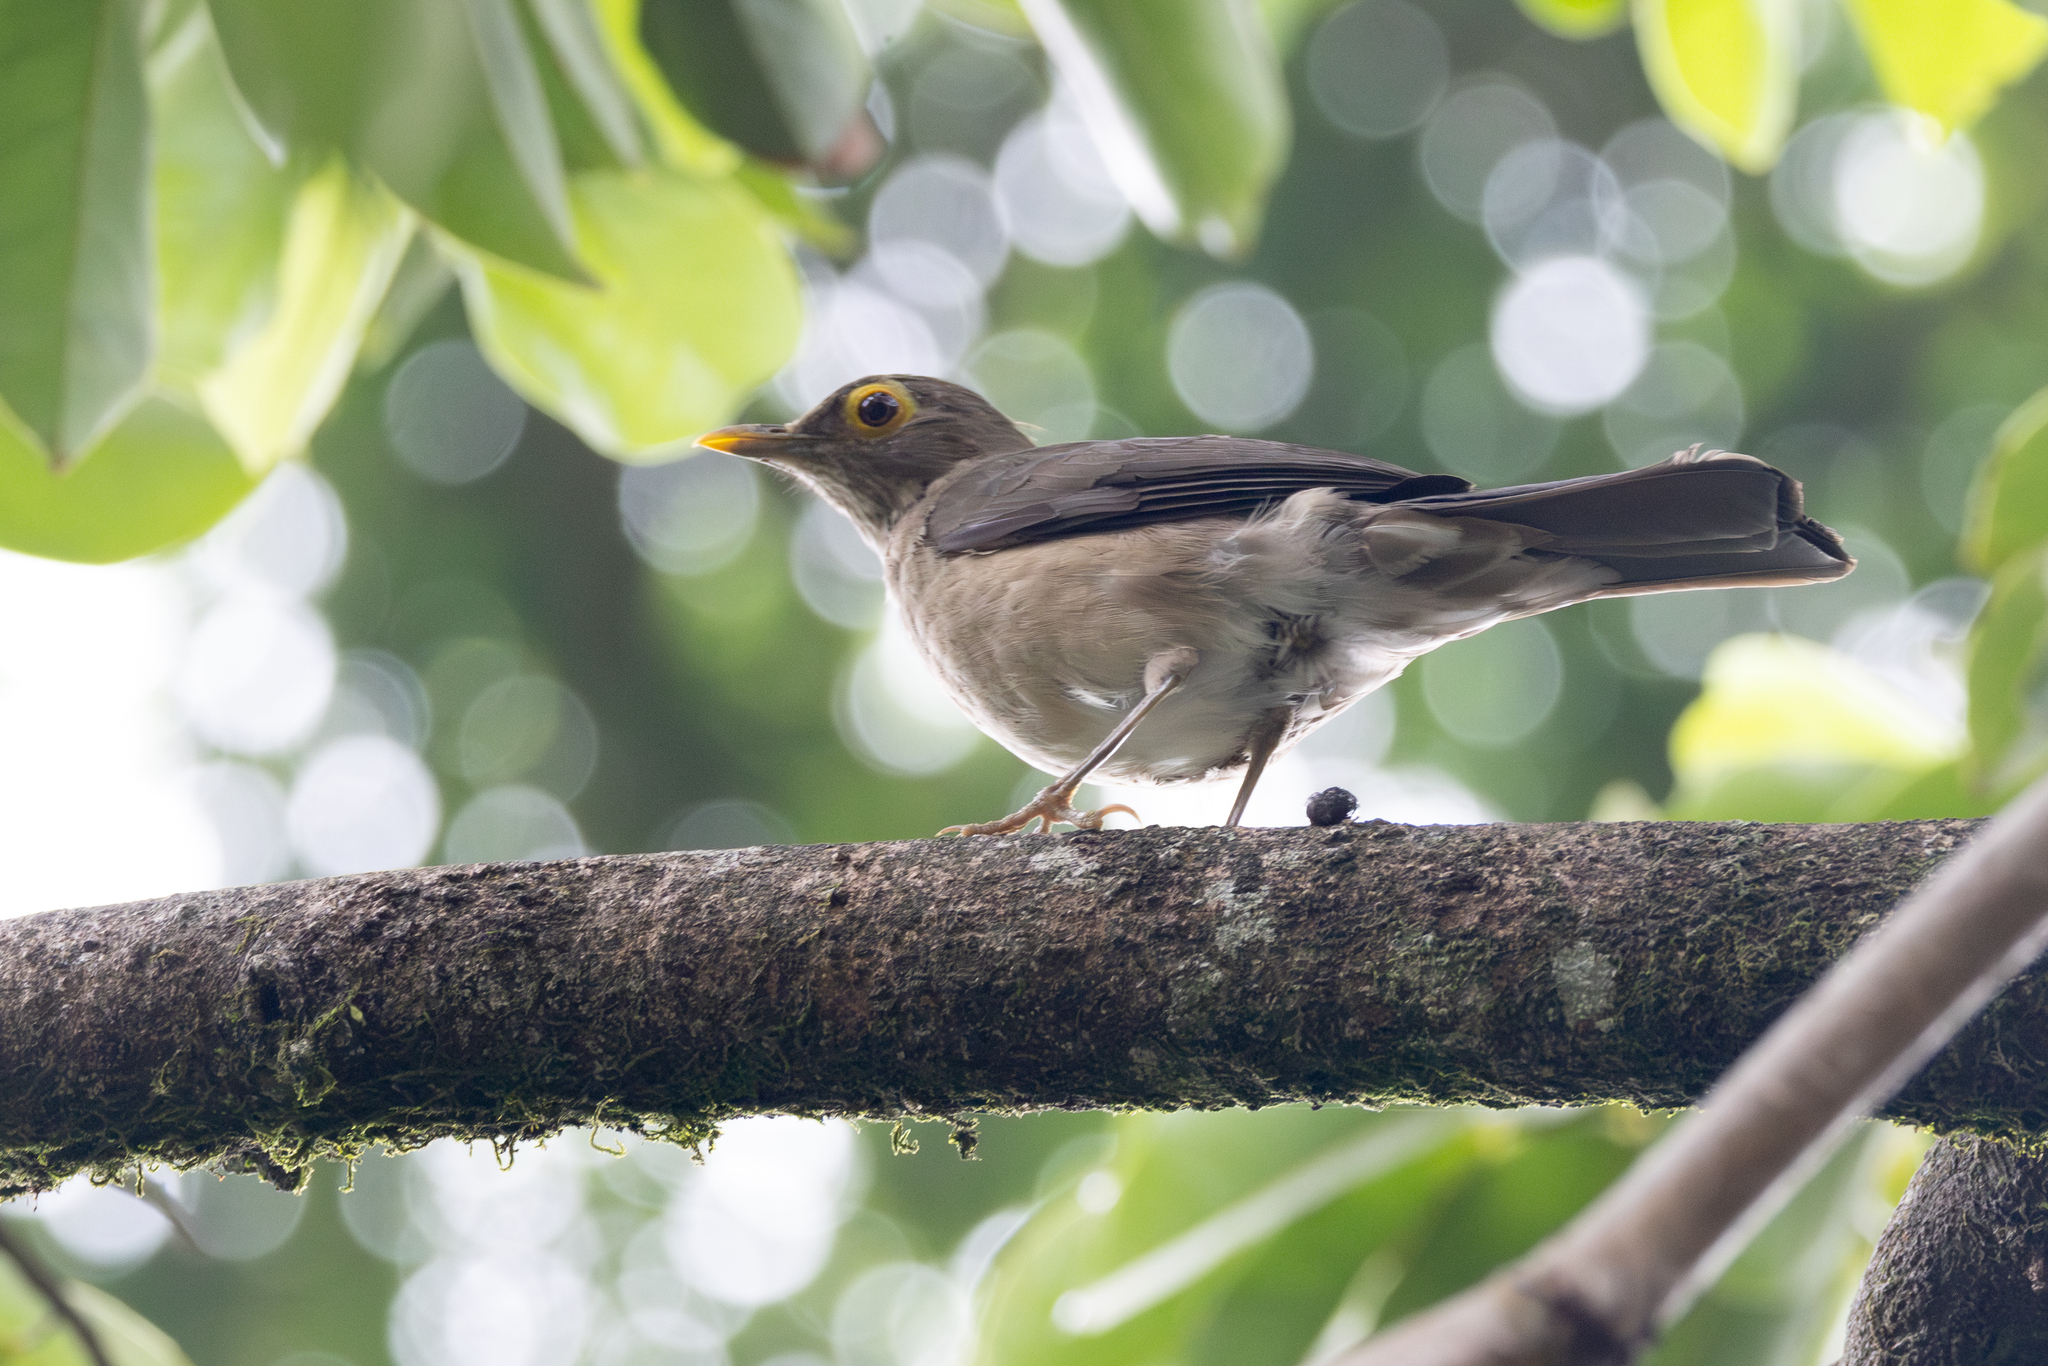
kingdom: Animalia
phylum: Chordata
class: Aves
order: Passeriformes
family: Turdidae
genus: Turdus
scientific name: Turdus nudigenis
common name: Spectacled thrush
